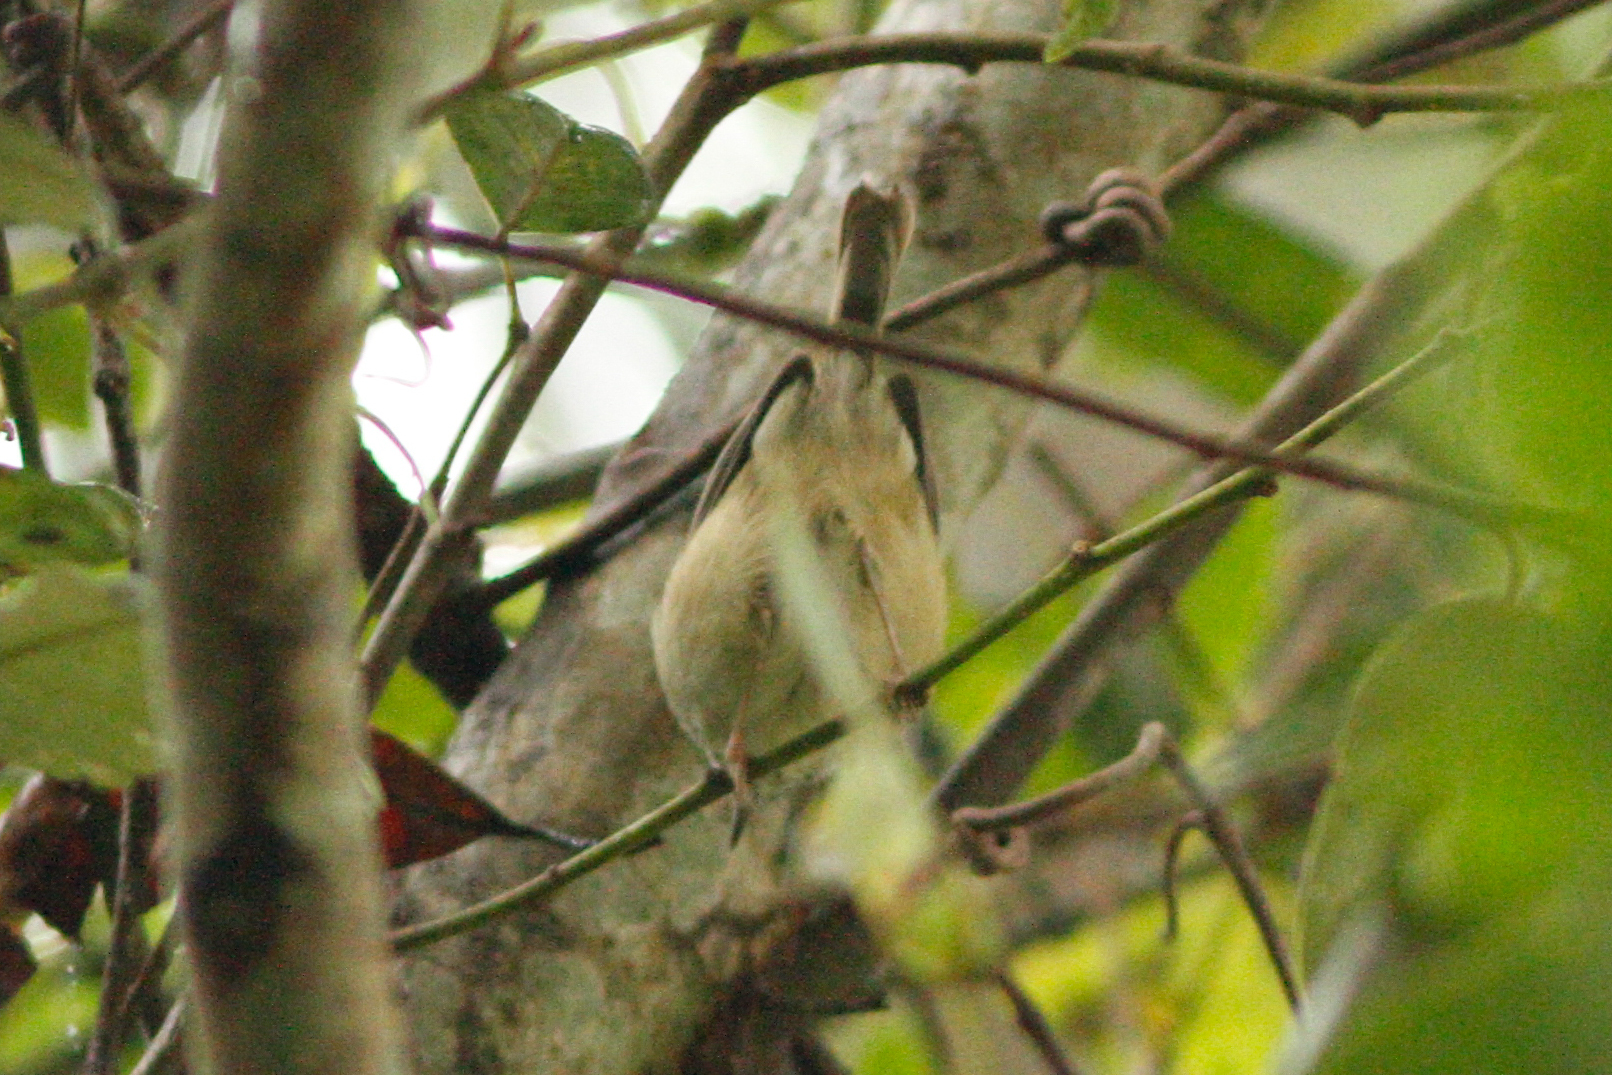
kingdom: Animalia
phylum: Chordata
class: Aves
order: Passeriformes
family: Acanthizidae
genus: Acanthiza
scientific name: Acanthiza pusilla
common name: Brown thornbill
